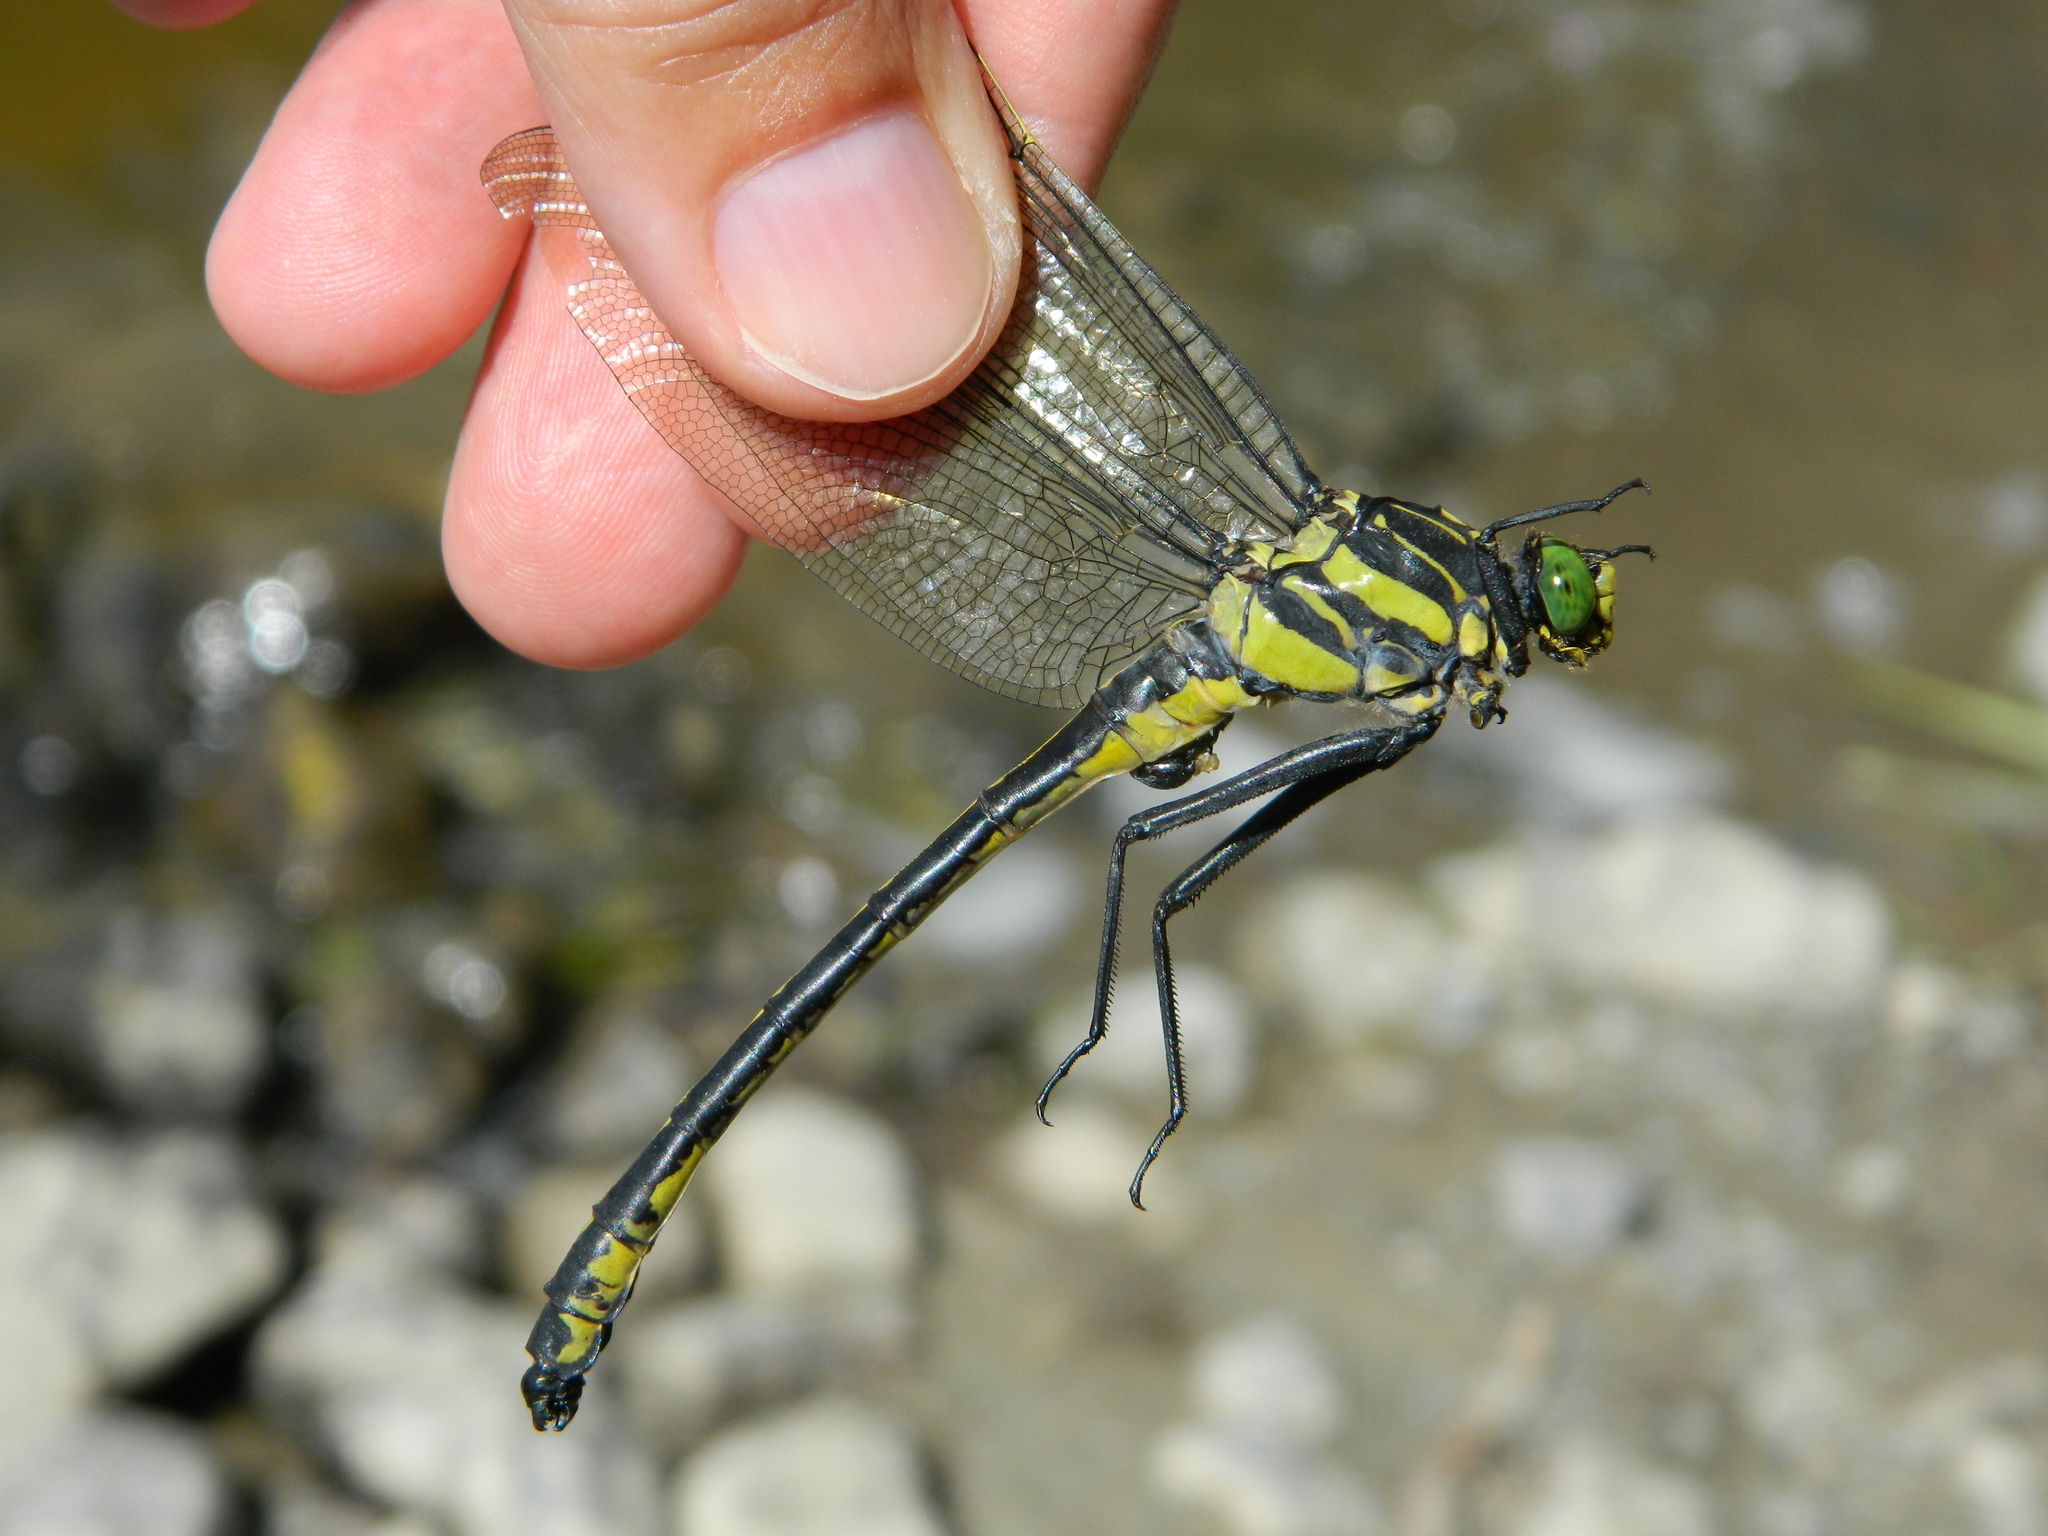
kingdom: Animalia
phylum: Arthropoda
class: Insecta
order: Odonata
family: Gomphidae
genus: Hagenius
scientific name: Hagenius brevistylus
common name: Dragonhunter
